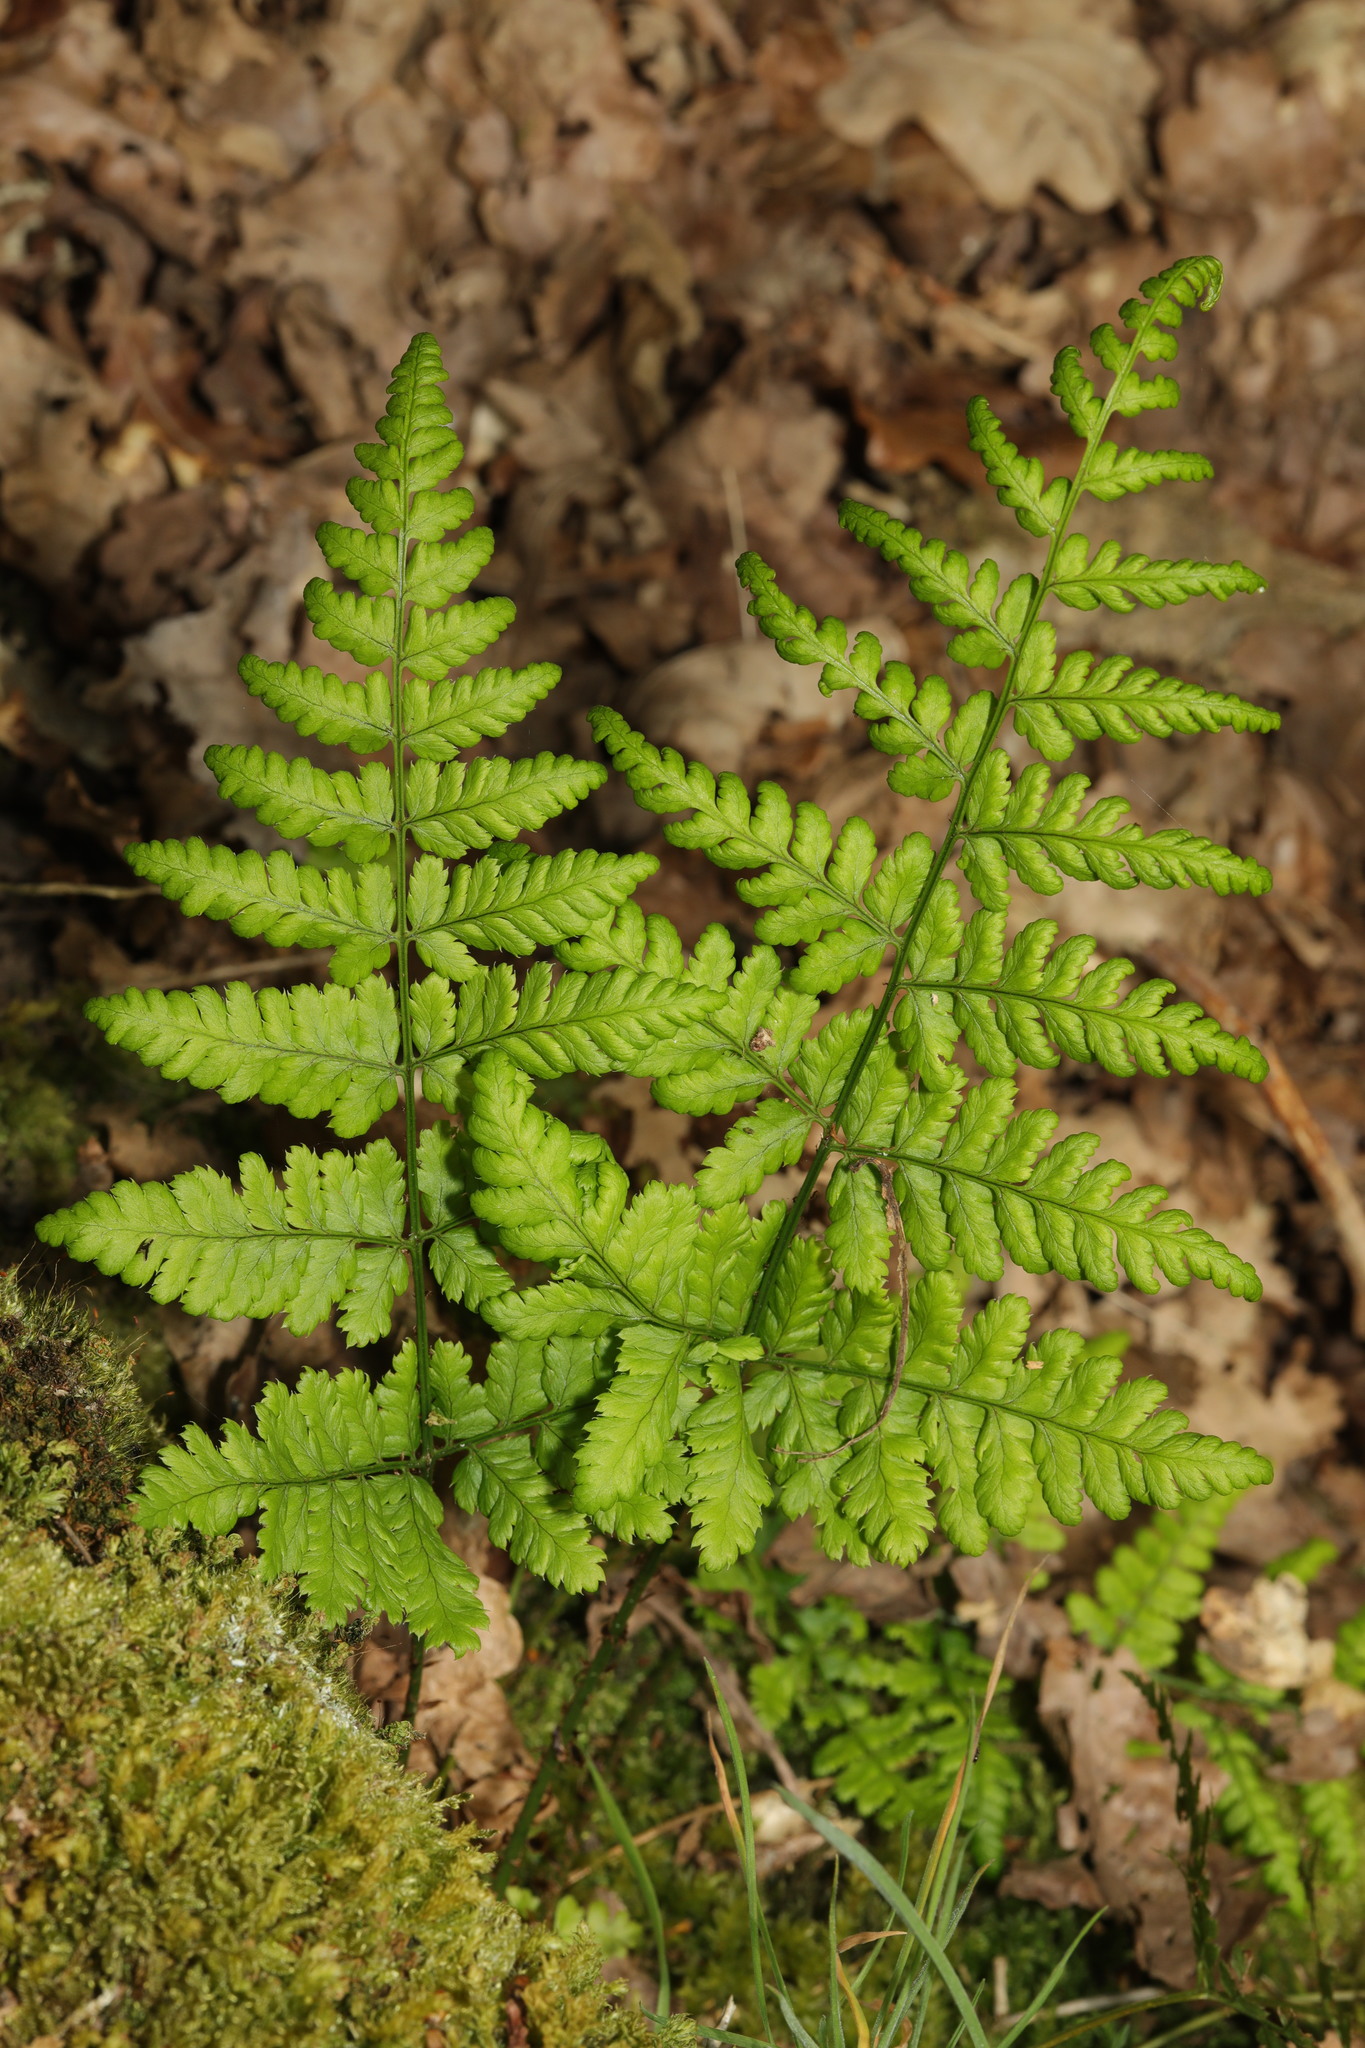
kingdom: Plantae
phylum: Tracheophyta
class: Polypodiopsida
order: Polypodiales
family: Dryopteridaceae
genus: Dryopteris
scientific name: Dryopteris dilatata
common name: Broad buckler-fern
